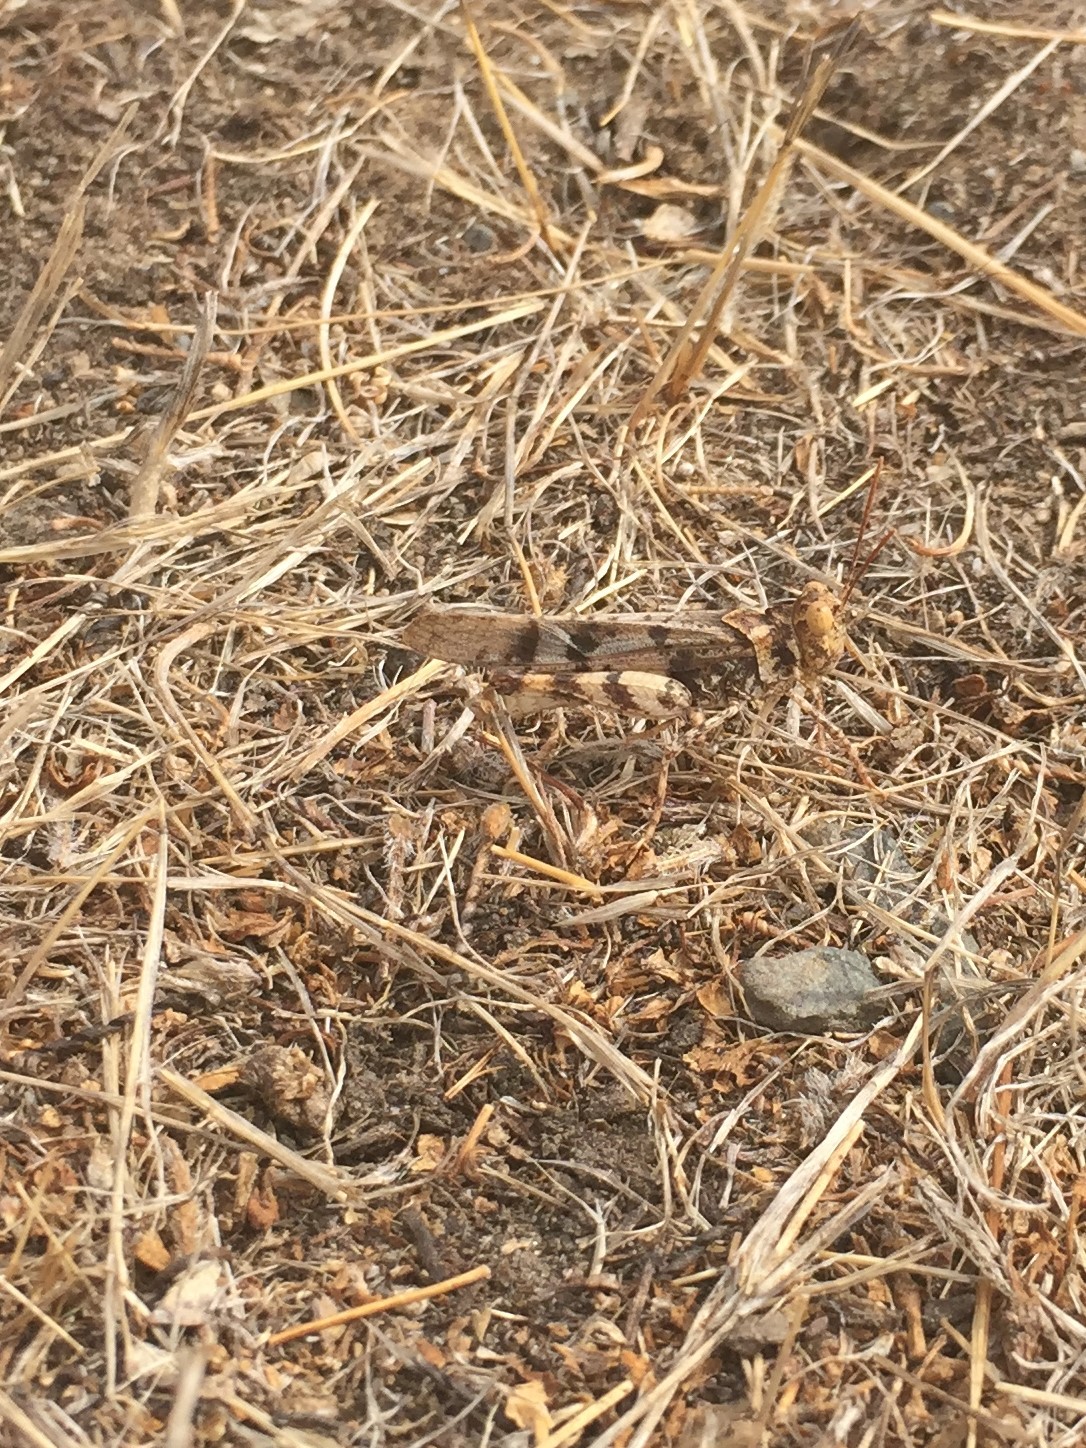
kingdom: Animalia
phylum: Arthropoda
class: Insecta
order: Orthoptera
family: Acrididae
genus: Dissosteira
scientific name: Dissosteira pictipennis
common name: California rose-winged grasshopper
